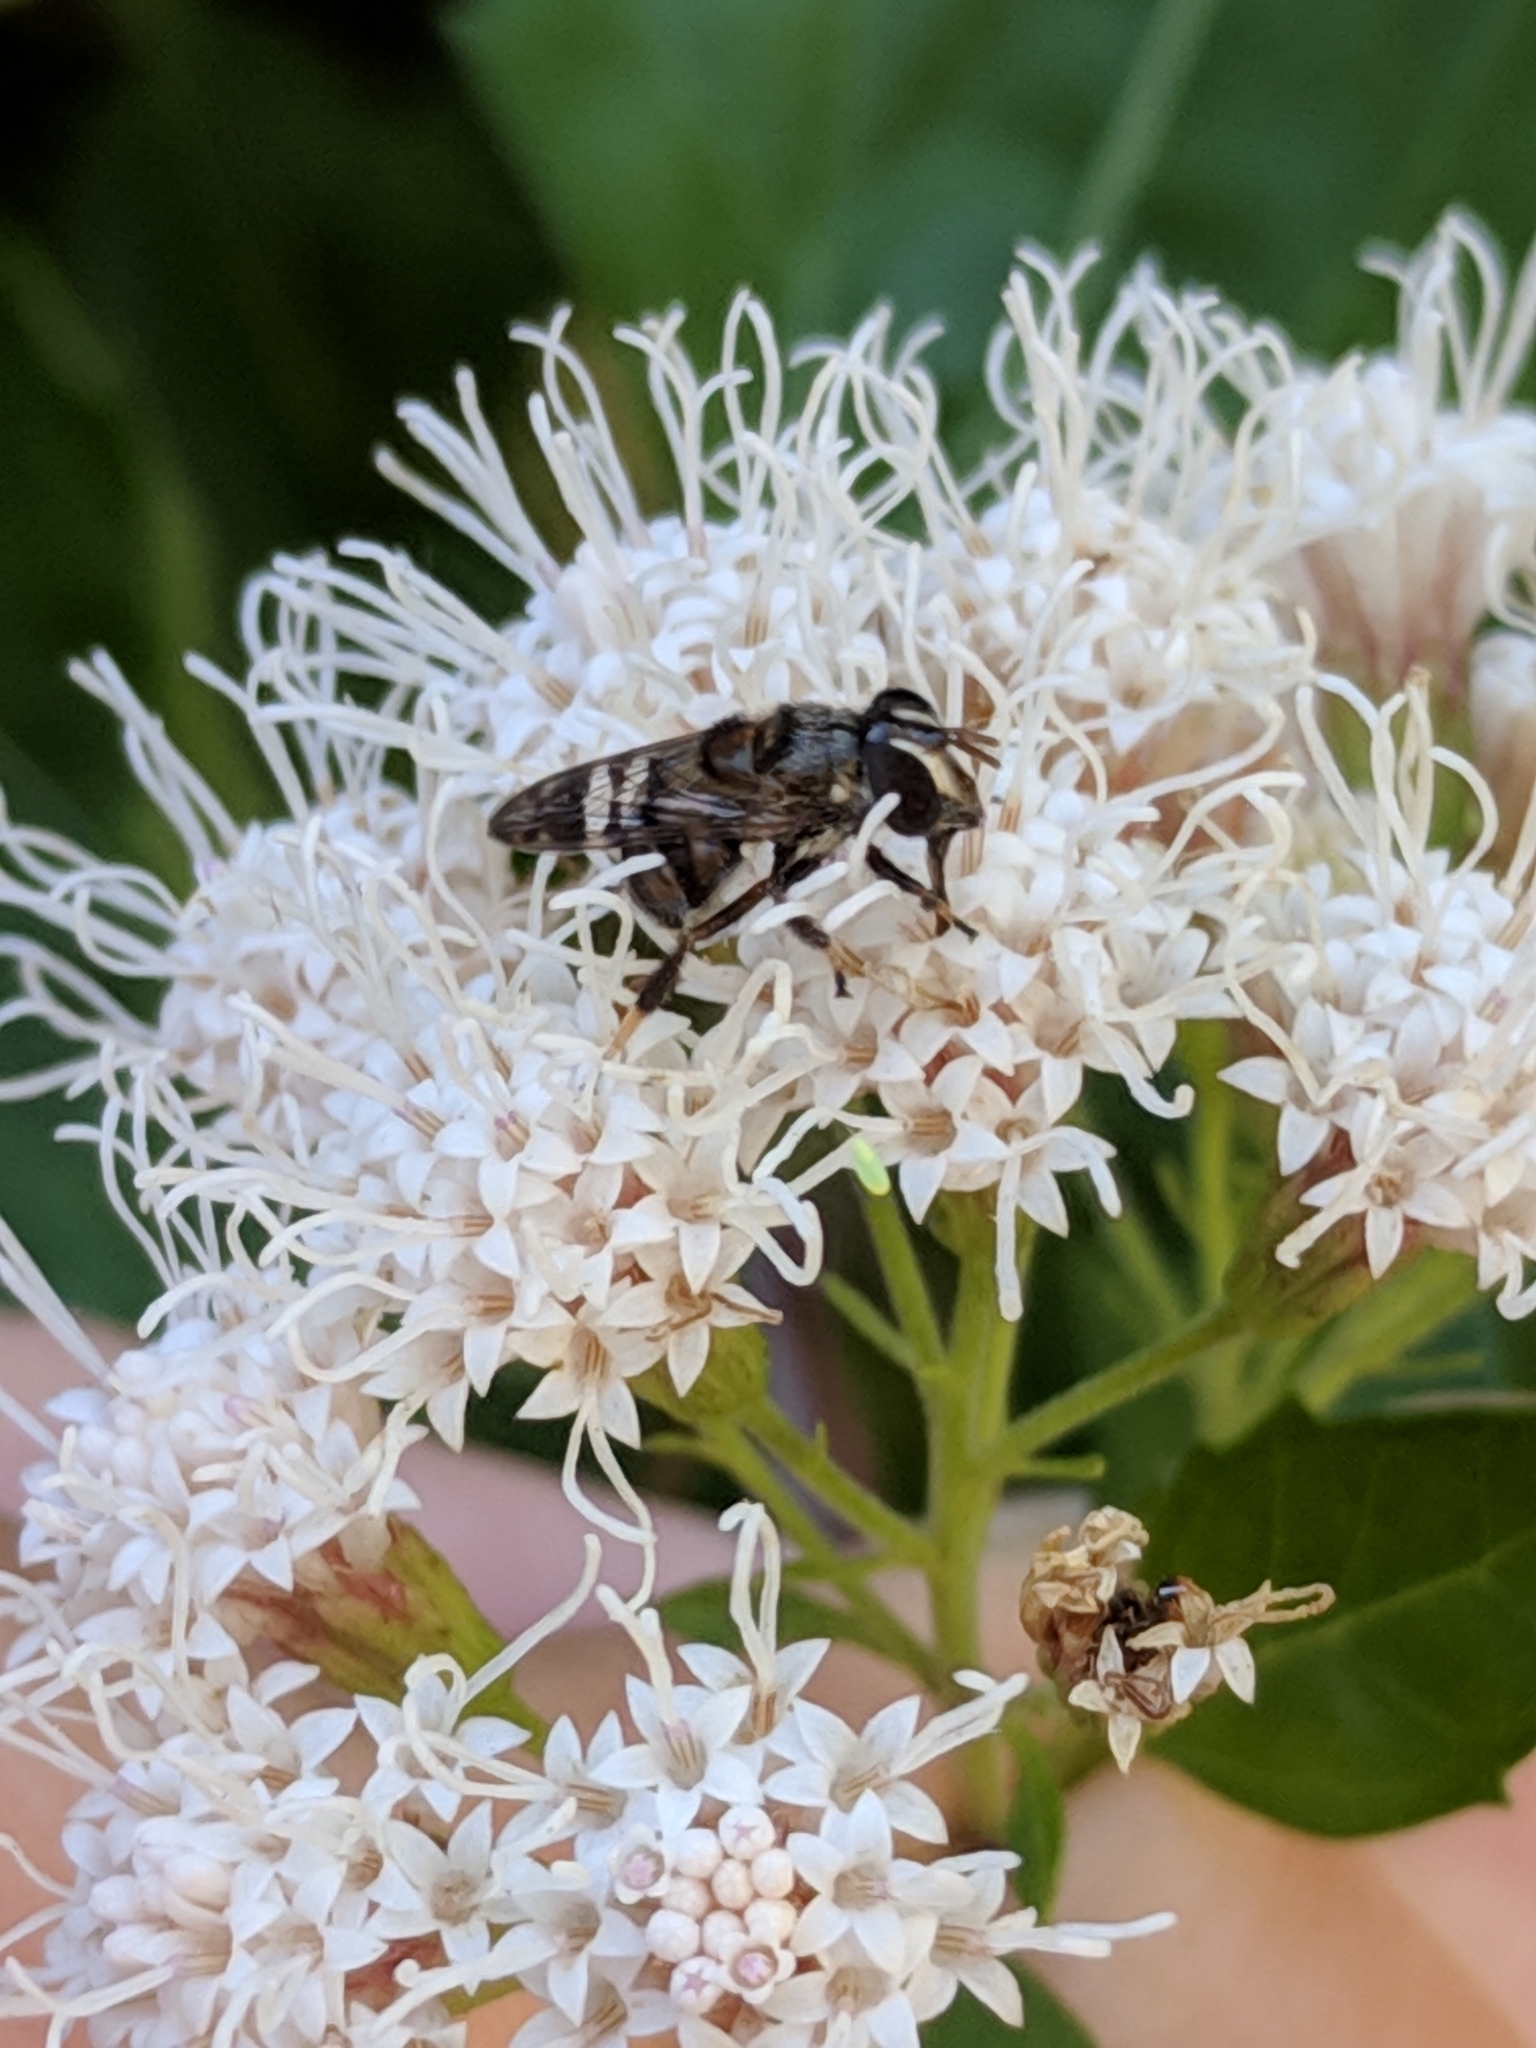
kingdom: Animalia
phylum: Arthropoda
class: Insecta
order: Diptera
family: Syrphidae
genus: Copestylum
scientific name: Copestylum tamaulipanum
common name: Syrphid fly
